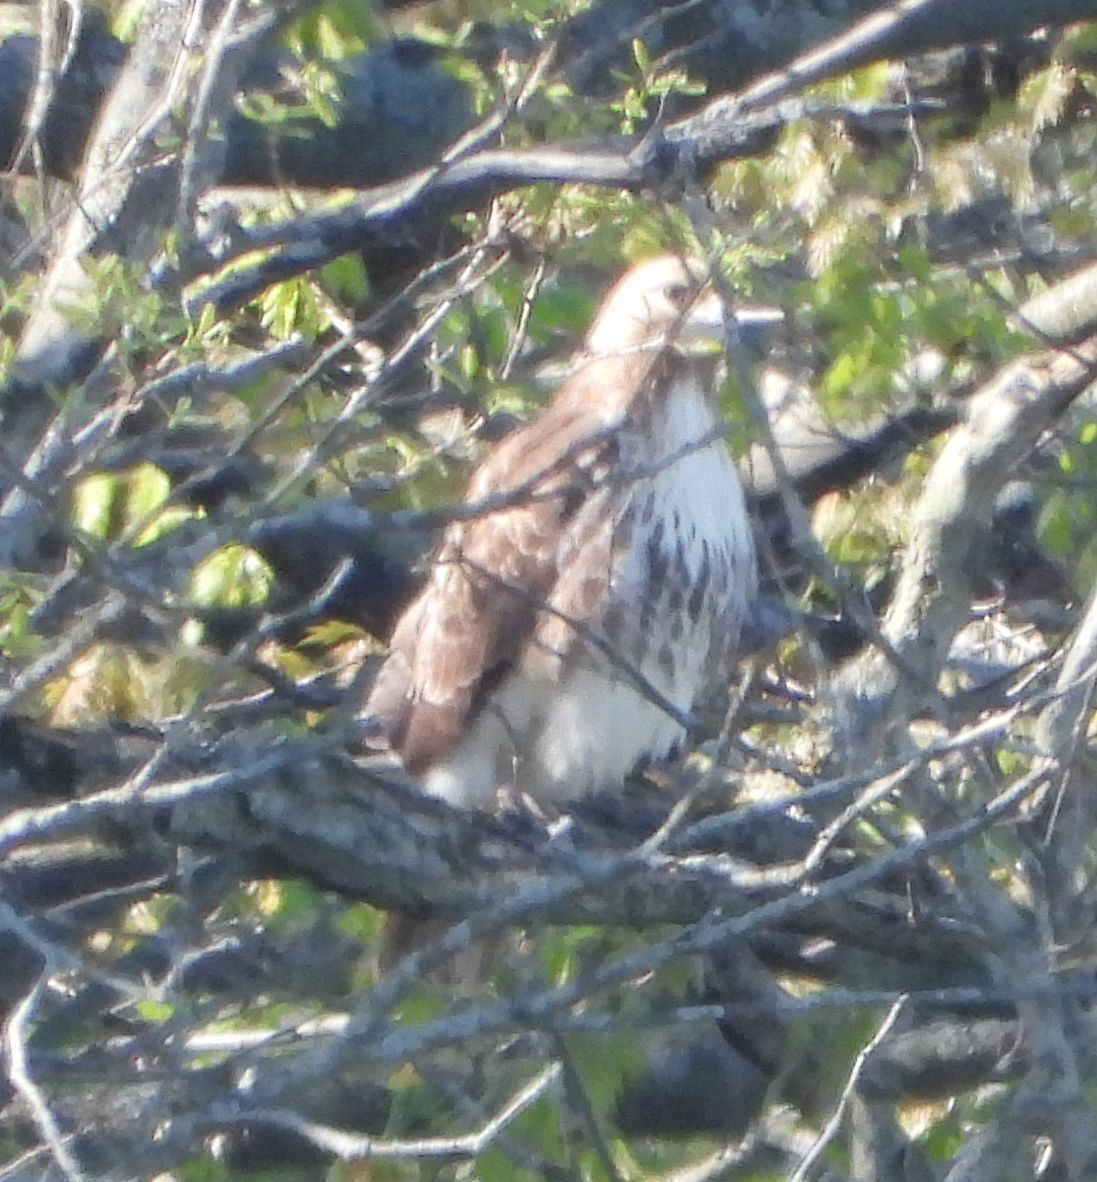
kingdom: Animalia
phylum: Chordata
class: Aves
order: Accipitriformes
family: Accipitridae
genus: Buteo
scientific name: Buteo jamaicensis
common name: Red-tailed hawk
